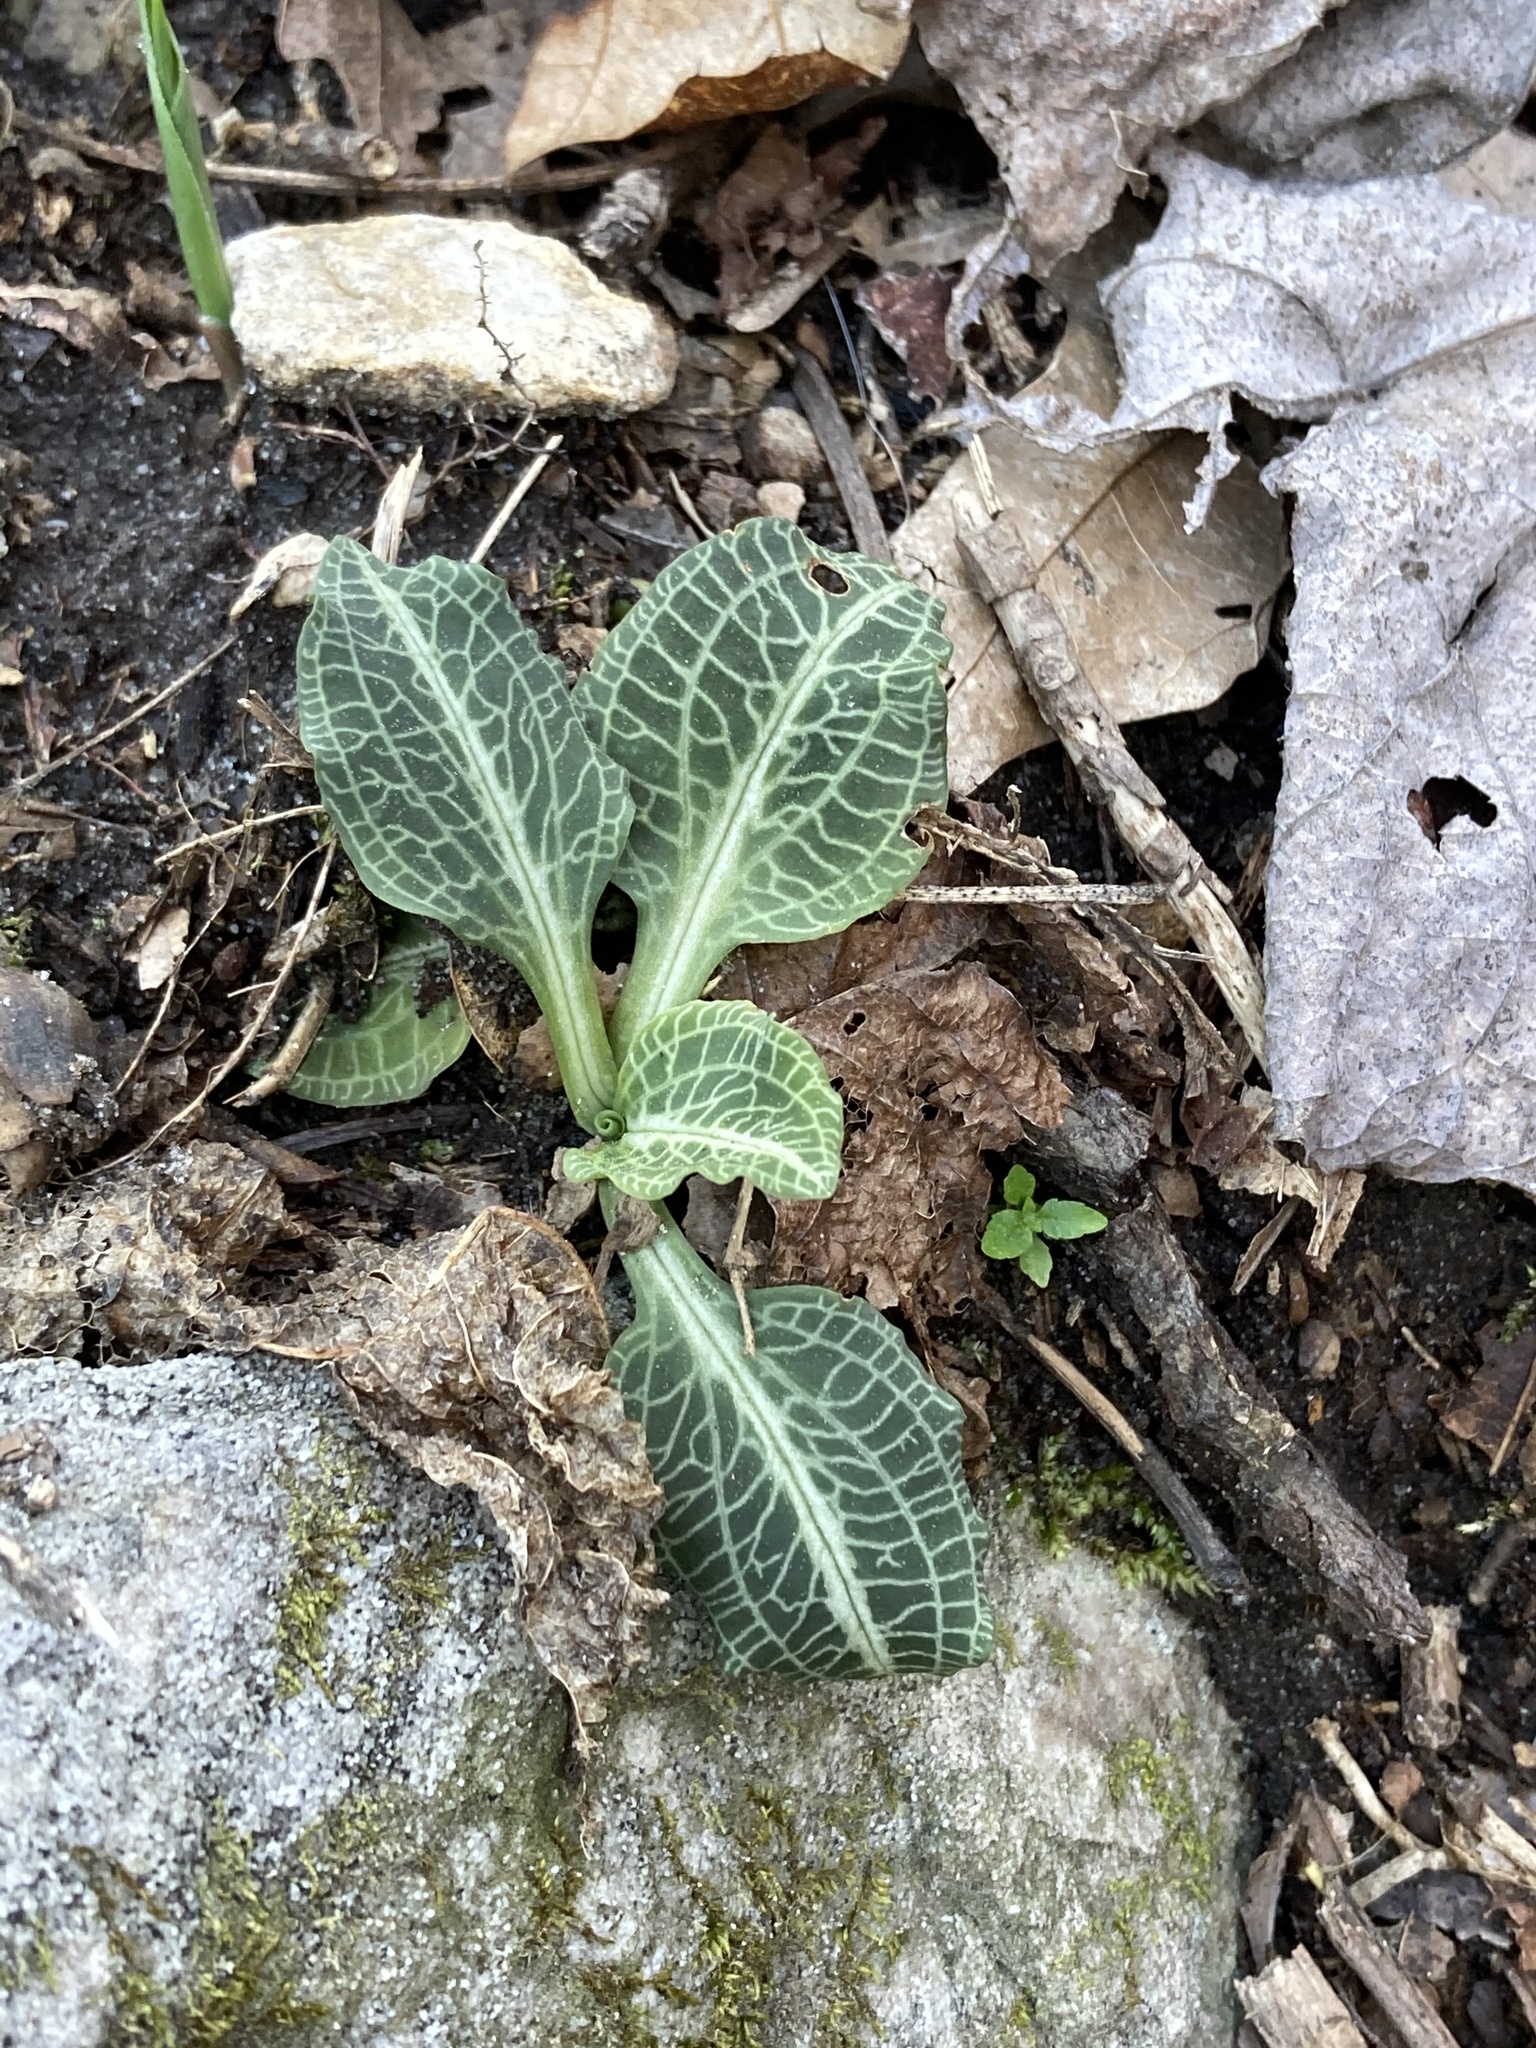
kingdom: Plantae
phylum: Tracheophyta
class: Liliopsida
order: Asparagales
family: Orchidaceae
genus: Goodyera
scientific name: Goodyera pubescens
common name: Downy rattlesnake-plantain
